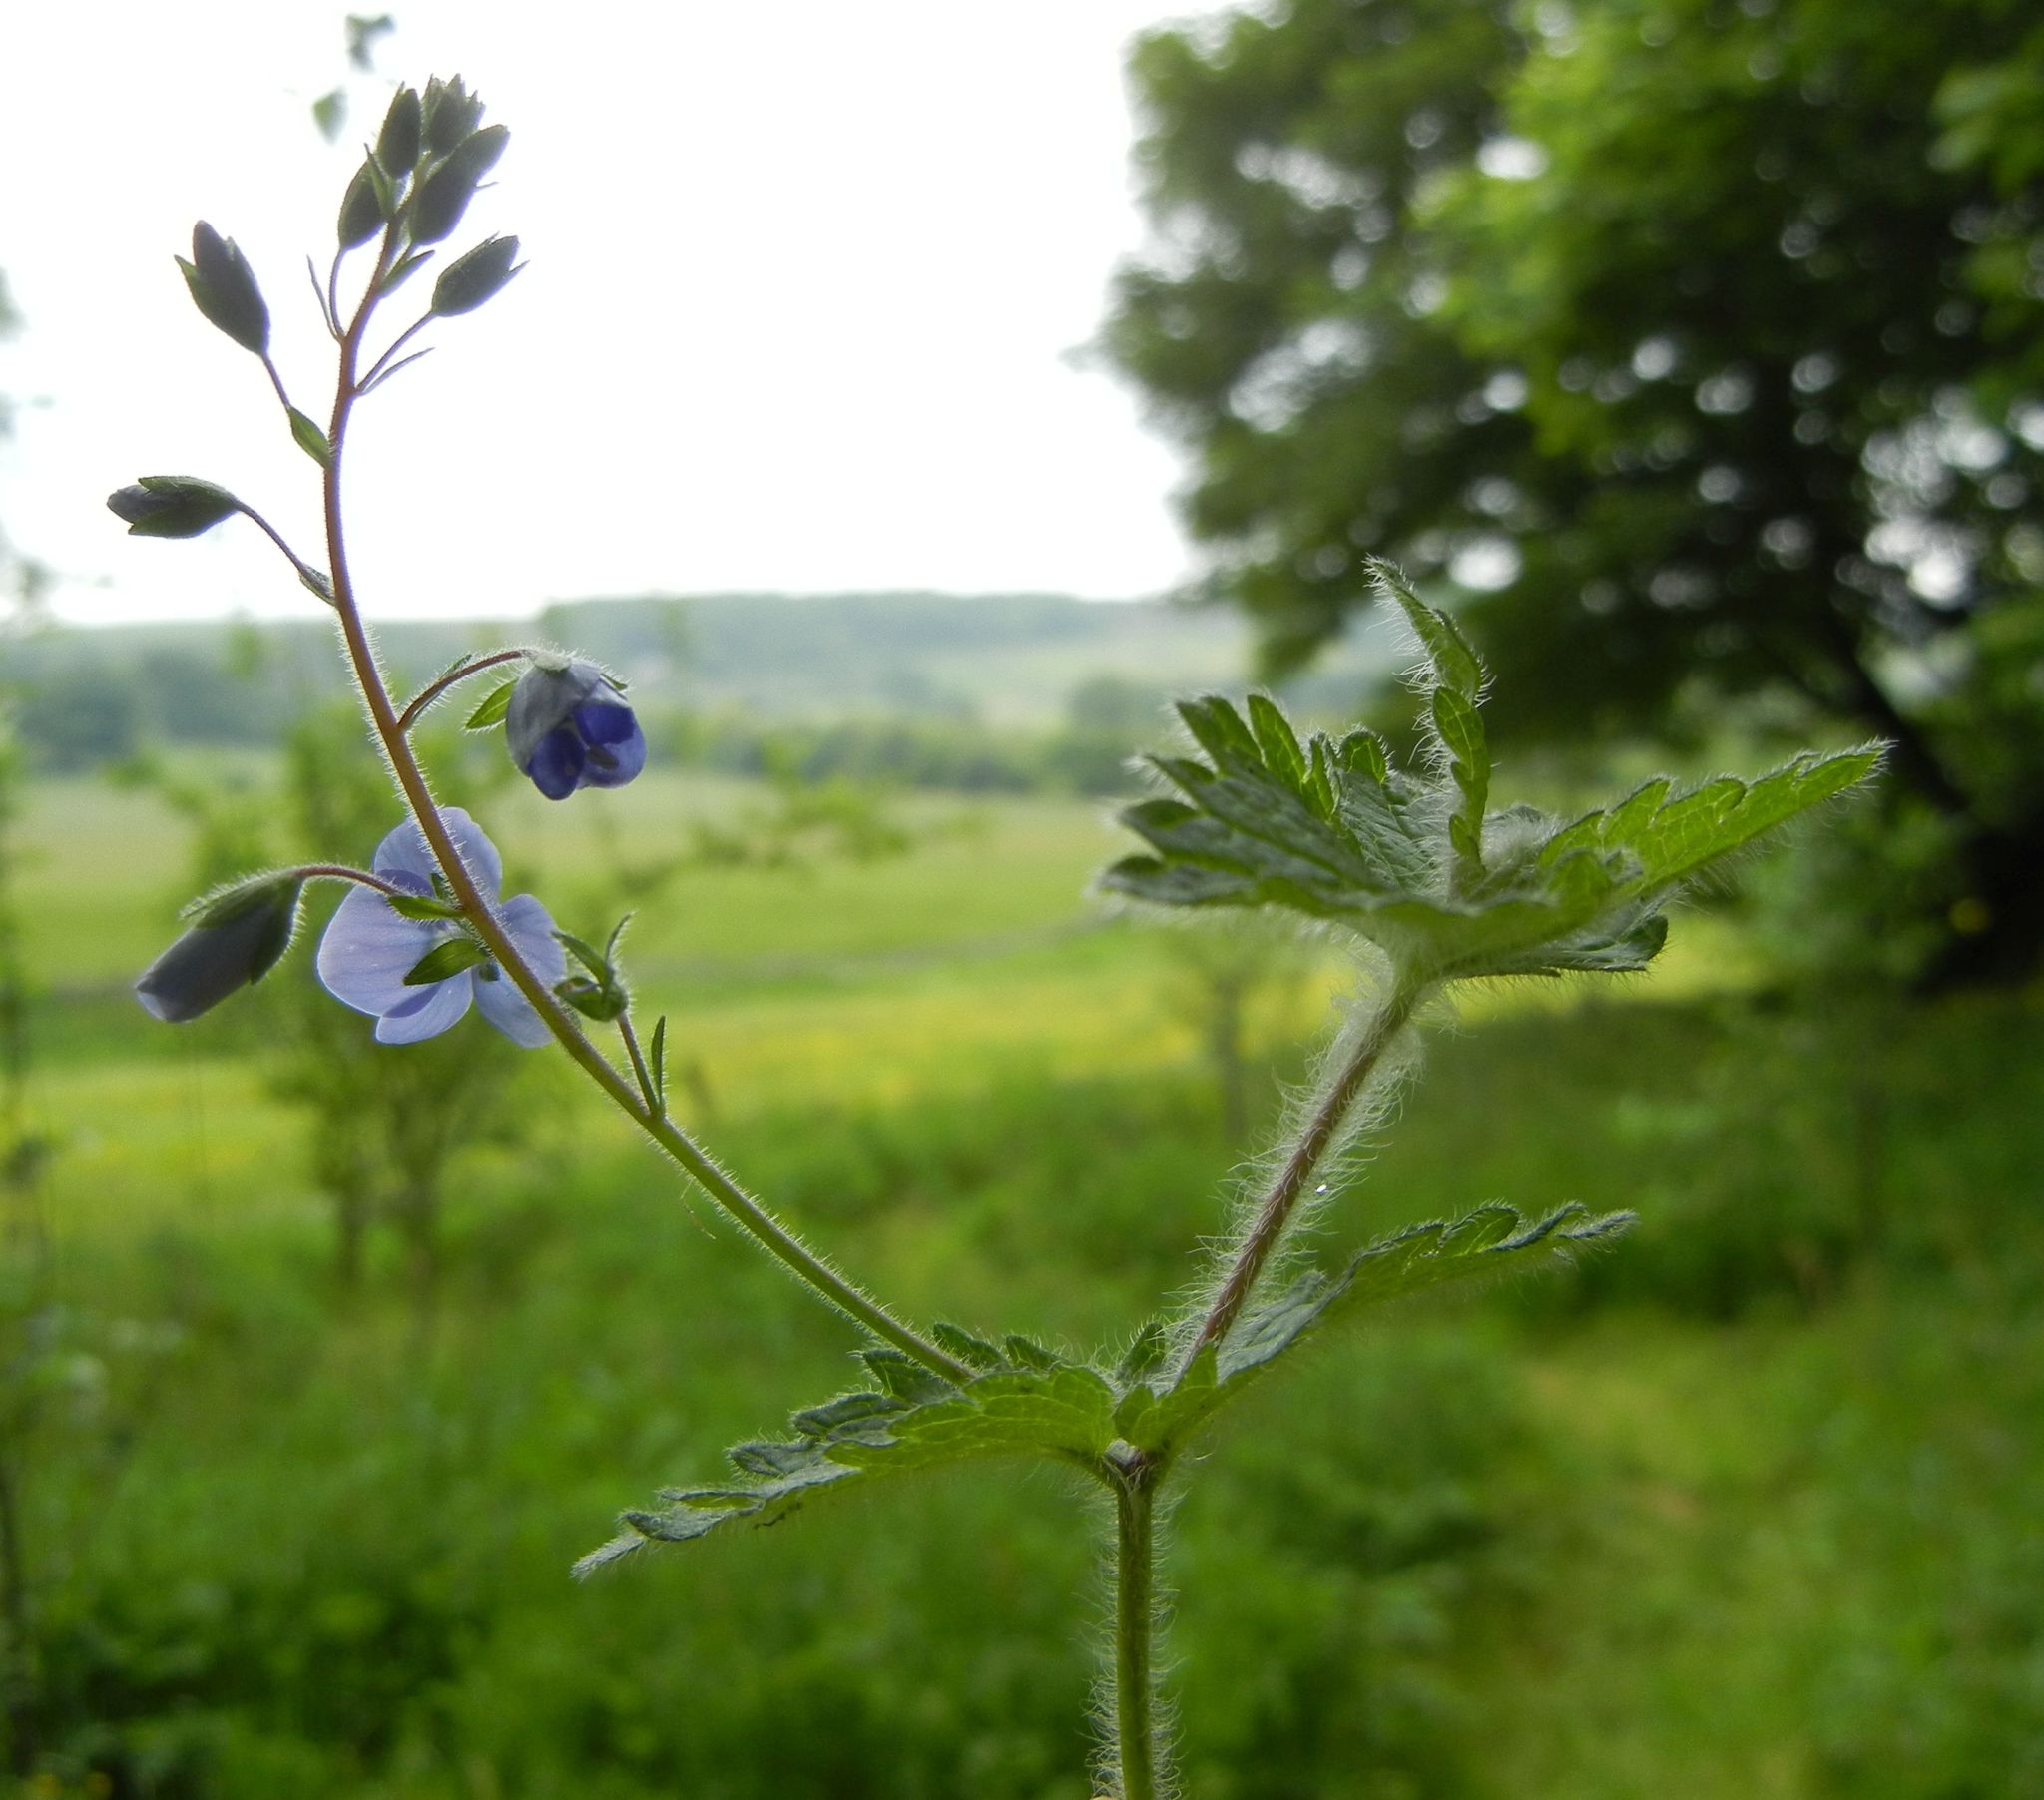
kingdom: Plantae
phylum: Tracheophyta
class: Magnoliopsida
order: Lamiales
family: Plantaginaceae
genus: Veronica
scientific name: Veronica chamaedrys
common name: Germander speedwell
